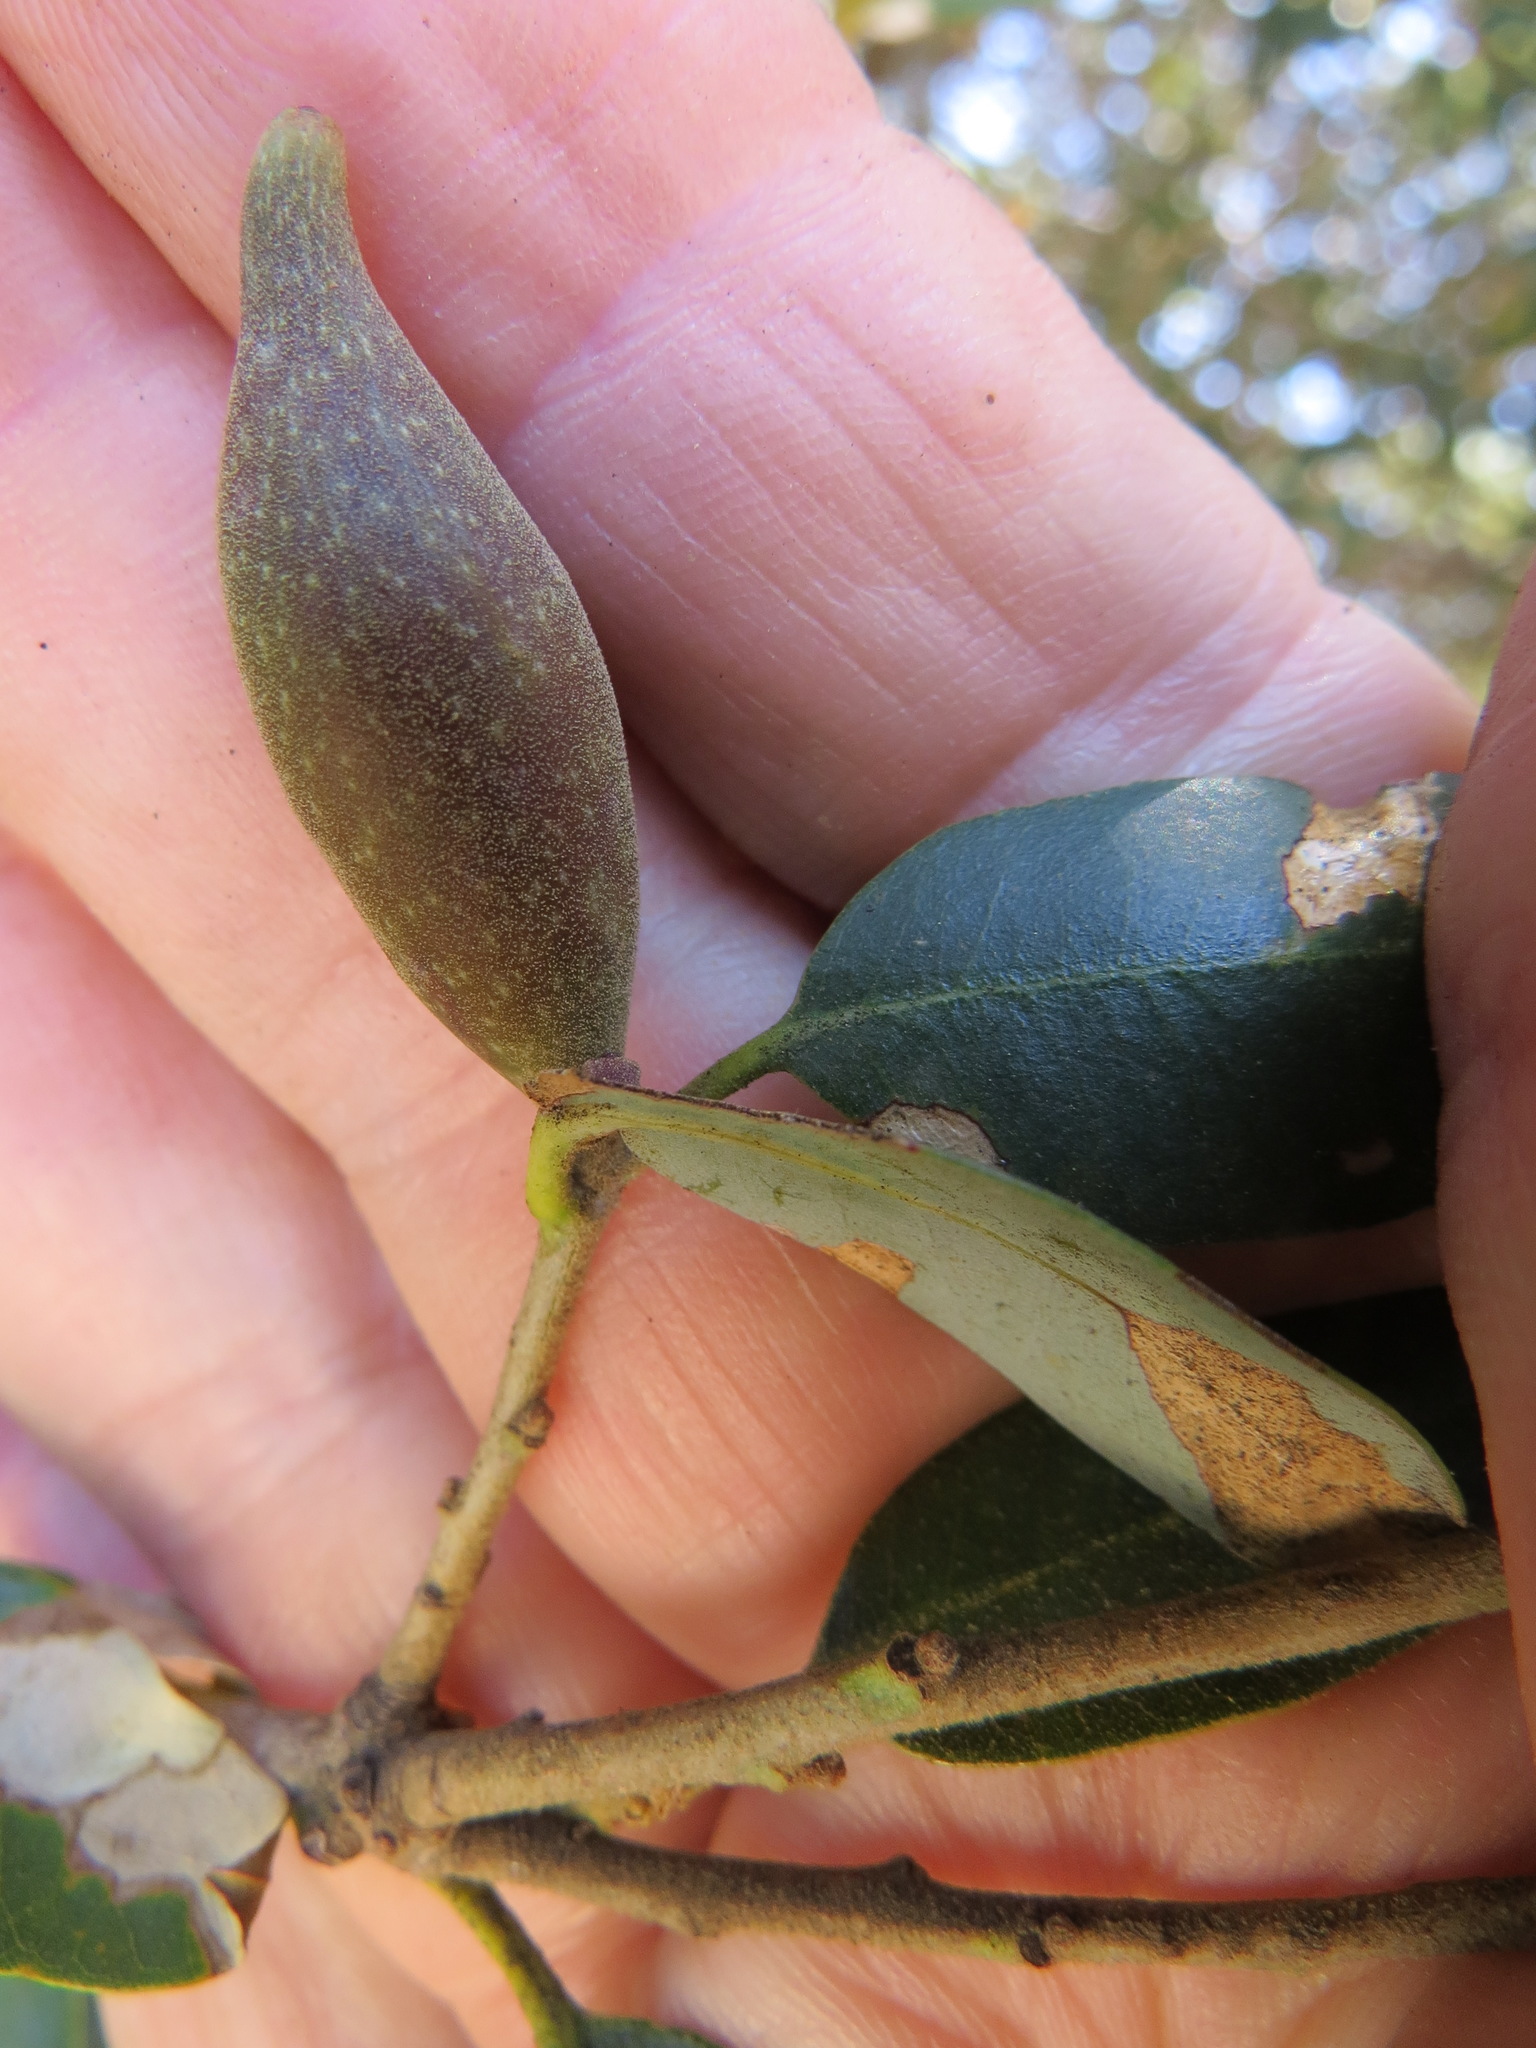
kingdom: Animalia
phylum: Arthropoda
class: Insecta
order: Hymenoptera
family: Cynipidae
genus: Heteroecus
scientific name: Heteroecus pacificus
